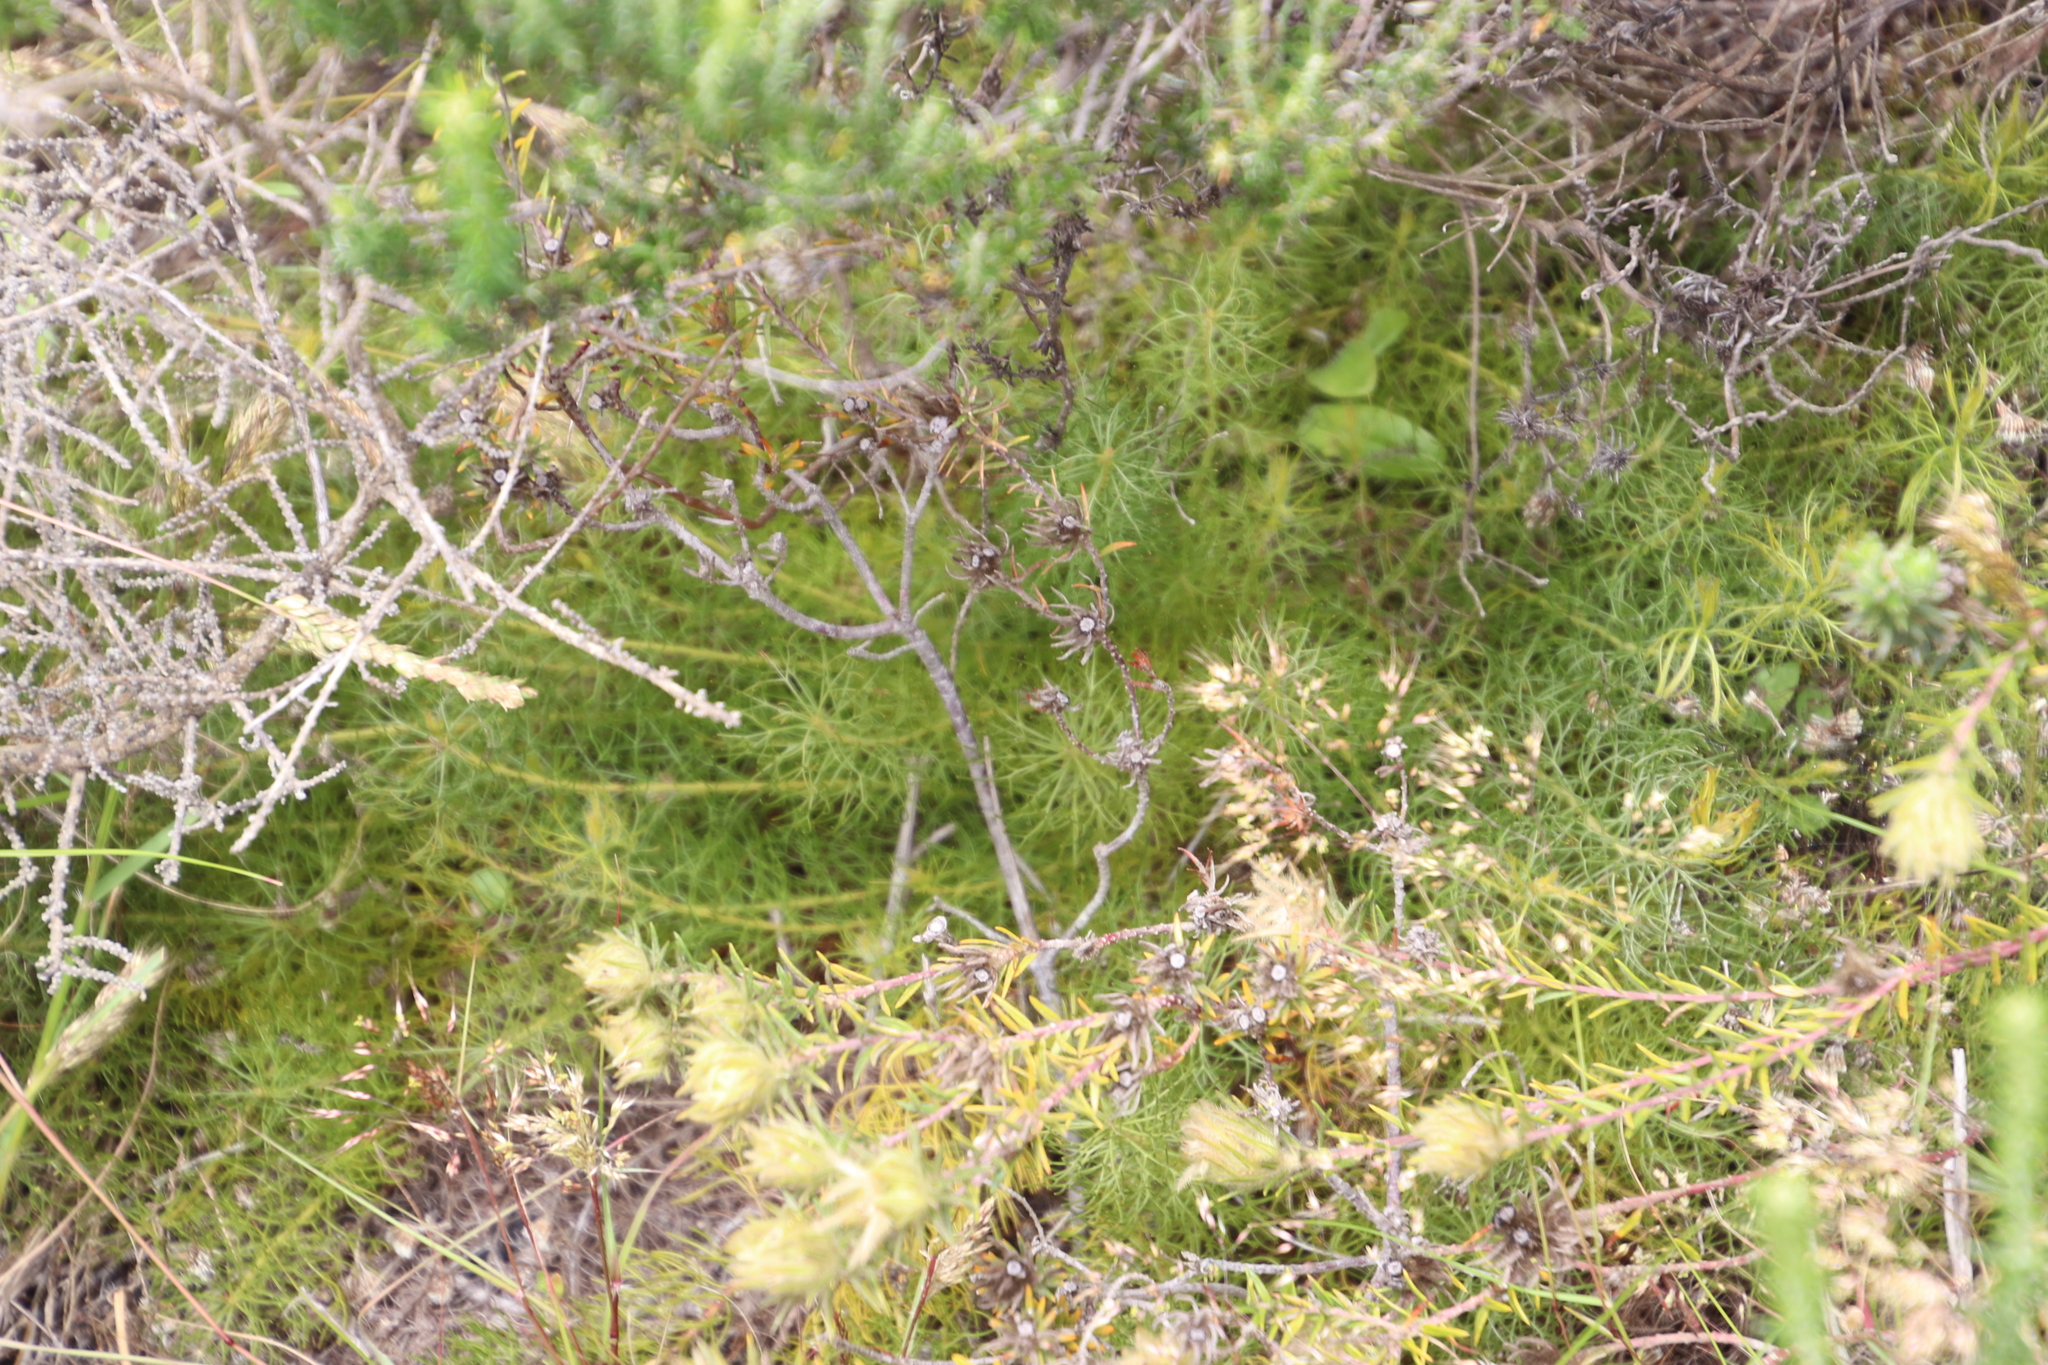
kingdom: Plantae
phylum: Tracheophyta
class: Magnoliopsida
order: Proteales
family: Proteaceae
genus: Serruria
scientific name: Serruria cyanoides
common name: Wynberg spiderhead
